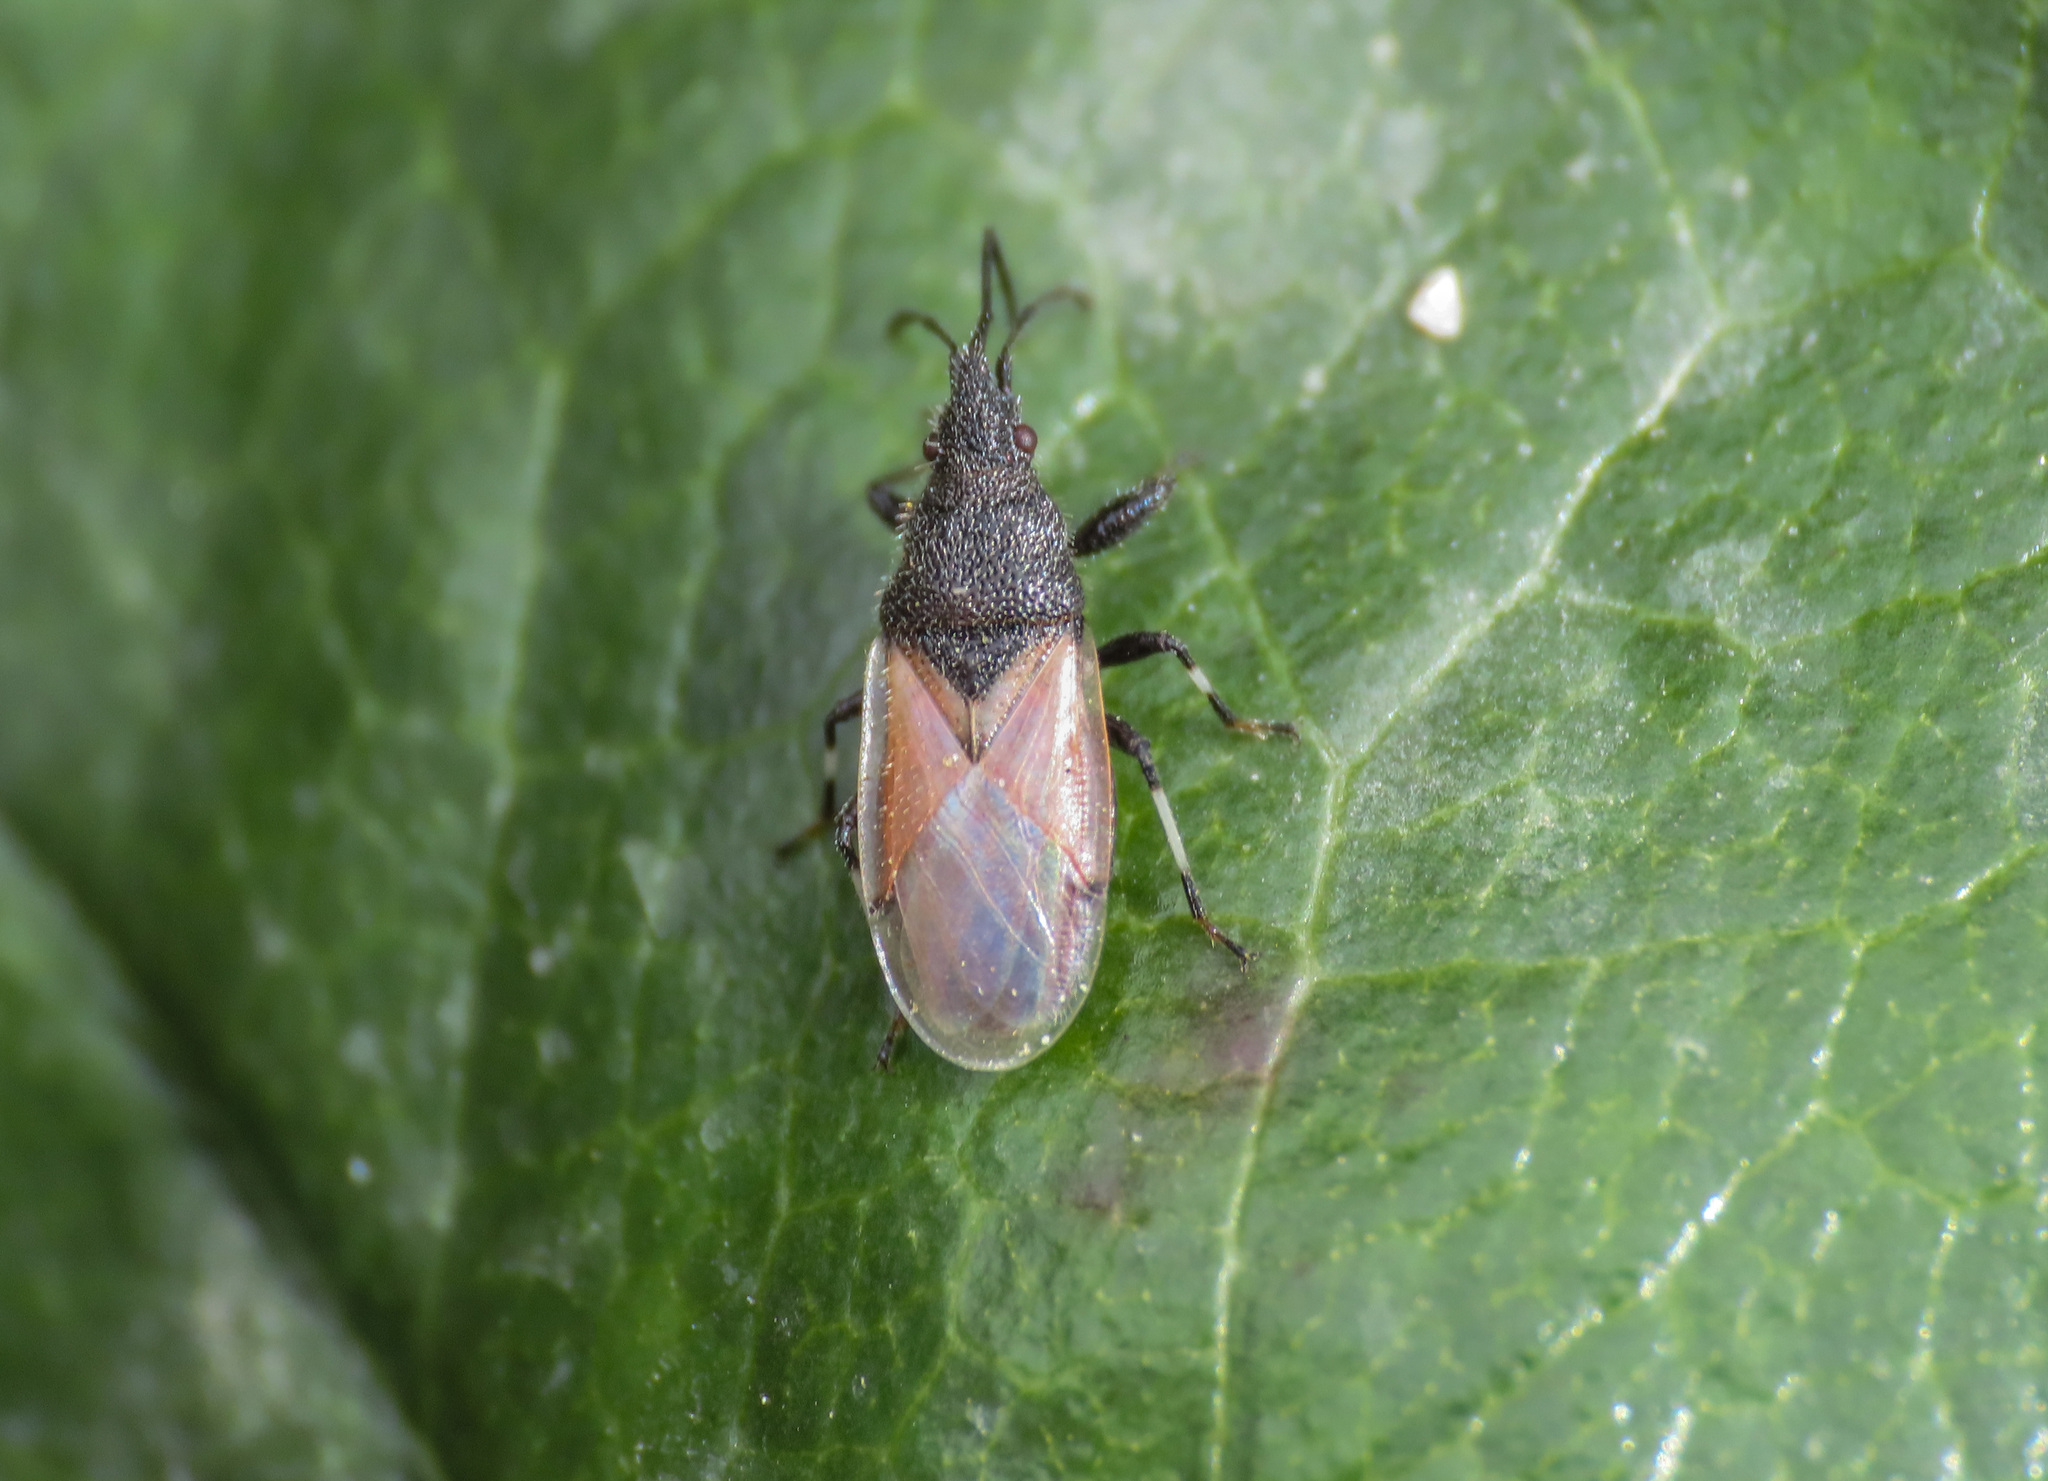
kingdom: Animalia
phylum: Arthropoda
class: Insecta
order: Hemiptera
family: Oxycarenidae
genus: Oxycarenus
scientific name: Oxycarenus hyalinipennis
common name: Cotton seed bug
